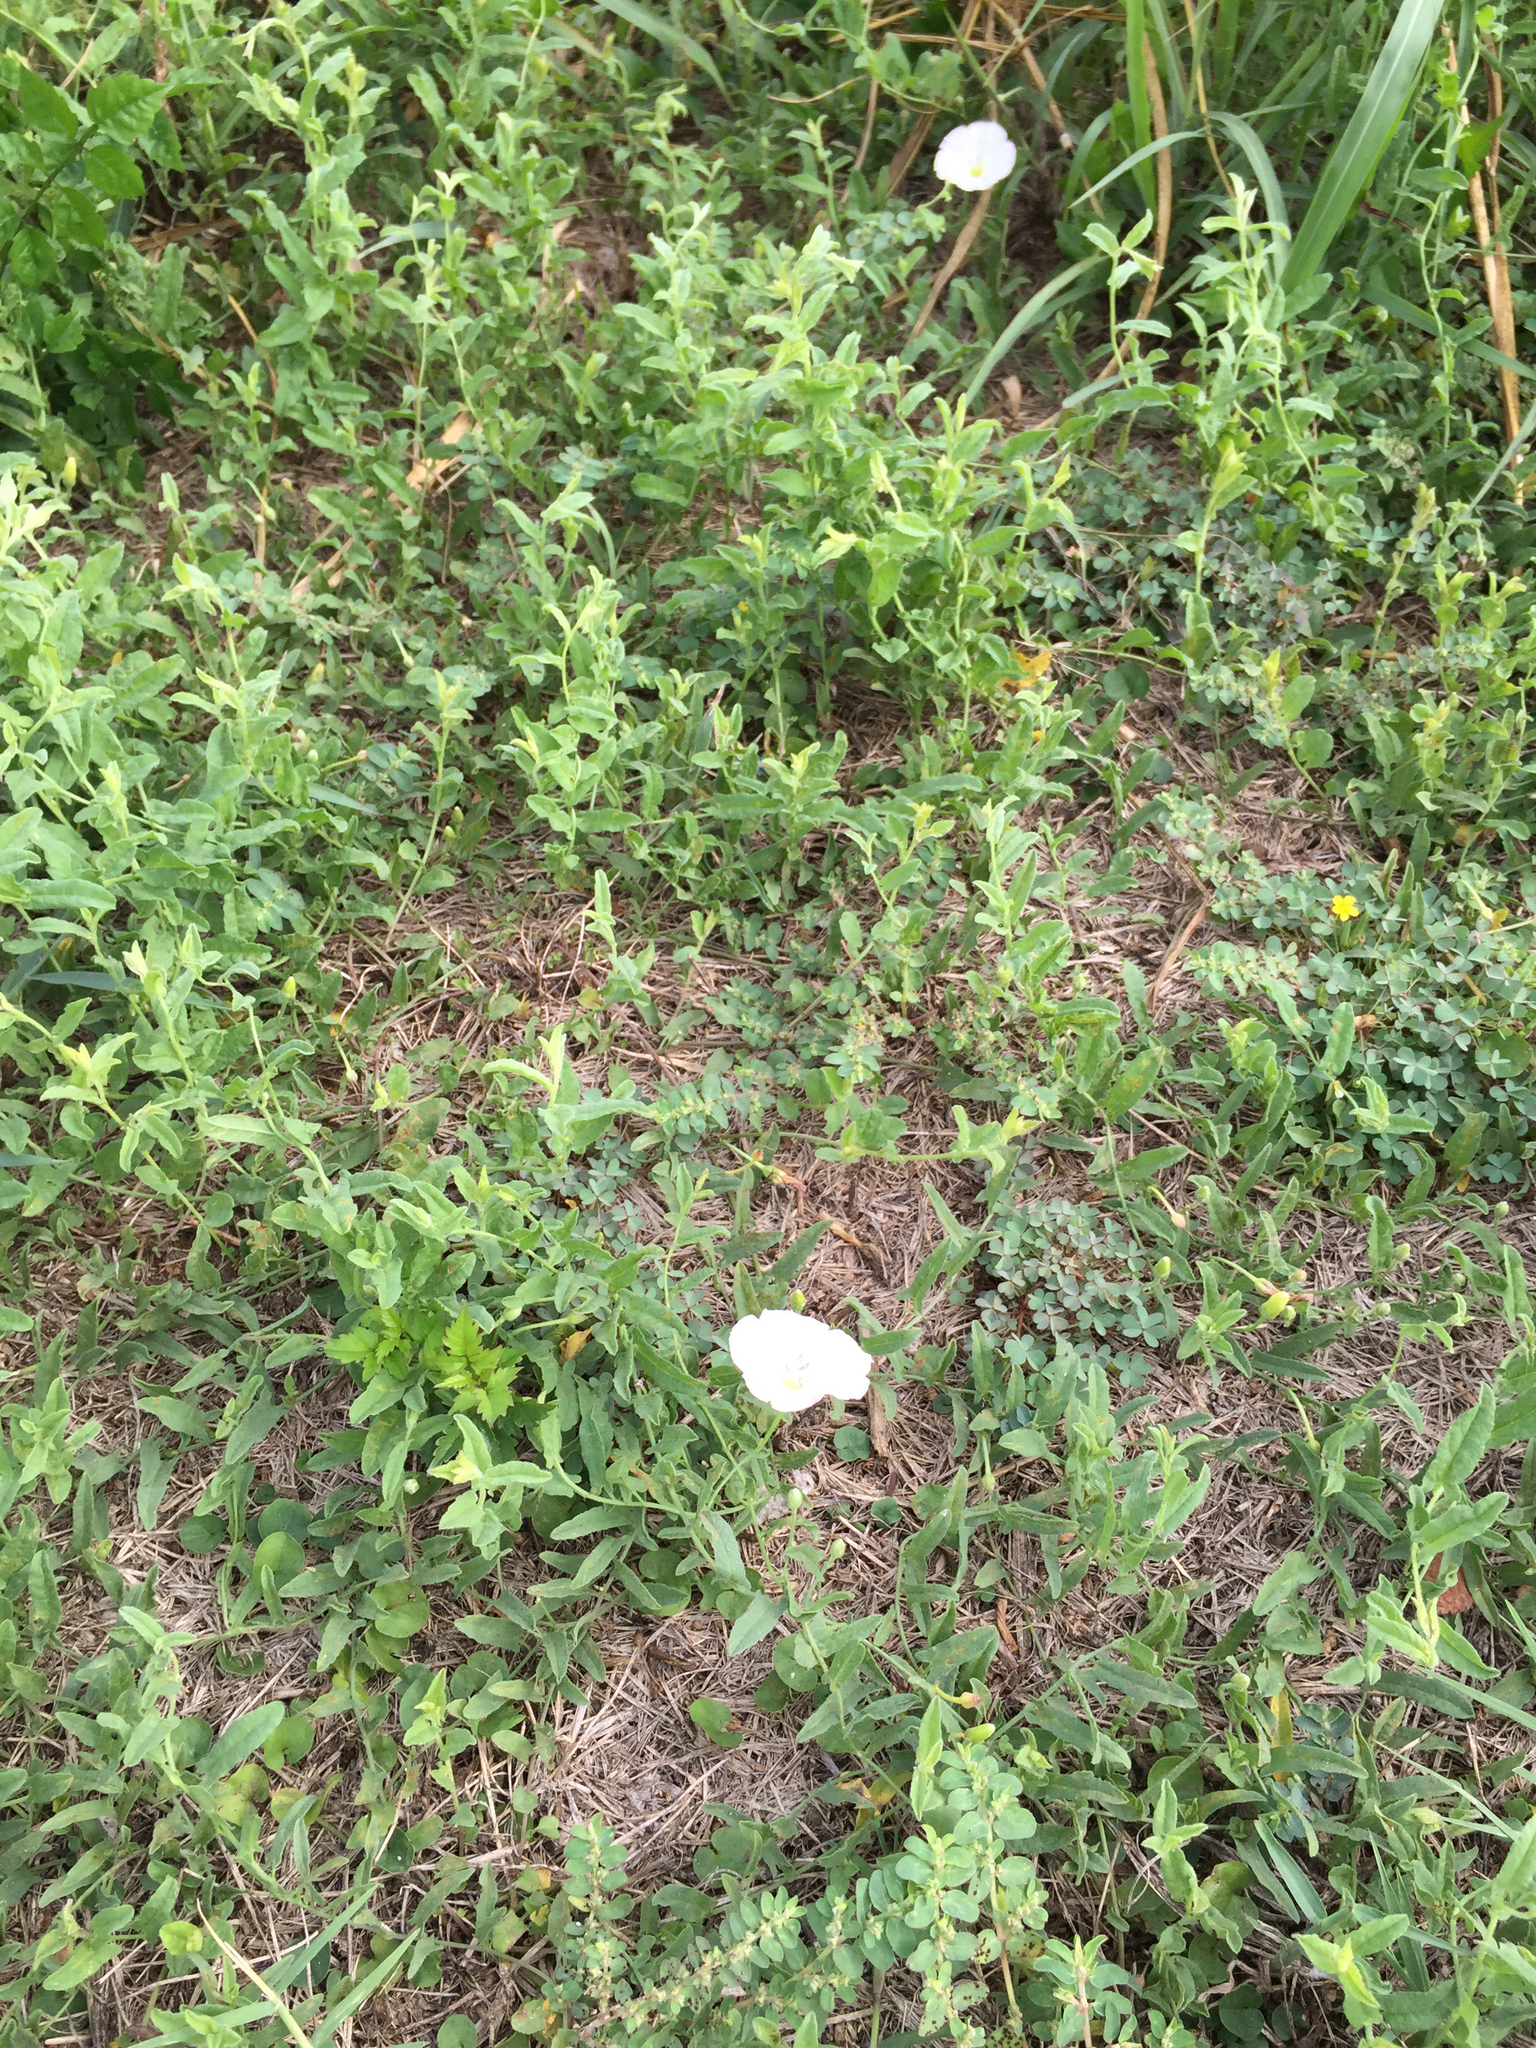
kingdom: Plantae
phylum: Tracheophyta
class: Magnoliopsida
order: Solanales
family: Convolvulaceae
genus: Convolvulus
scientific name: Convolvulus arvensis
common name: Field bindweed
